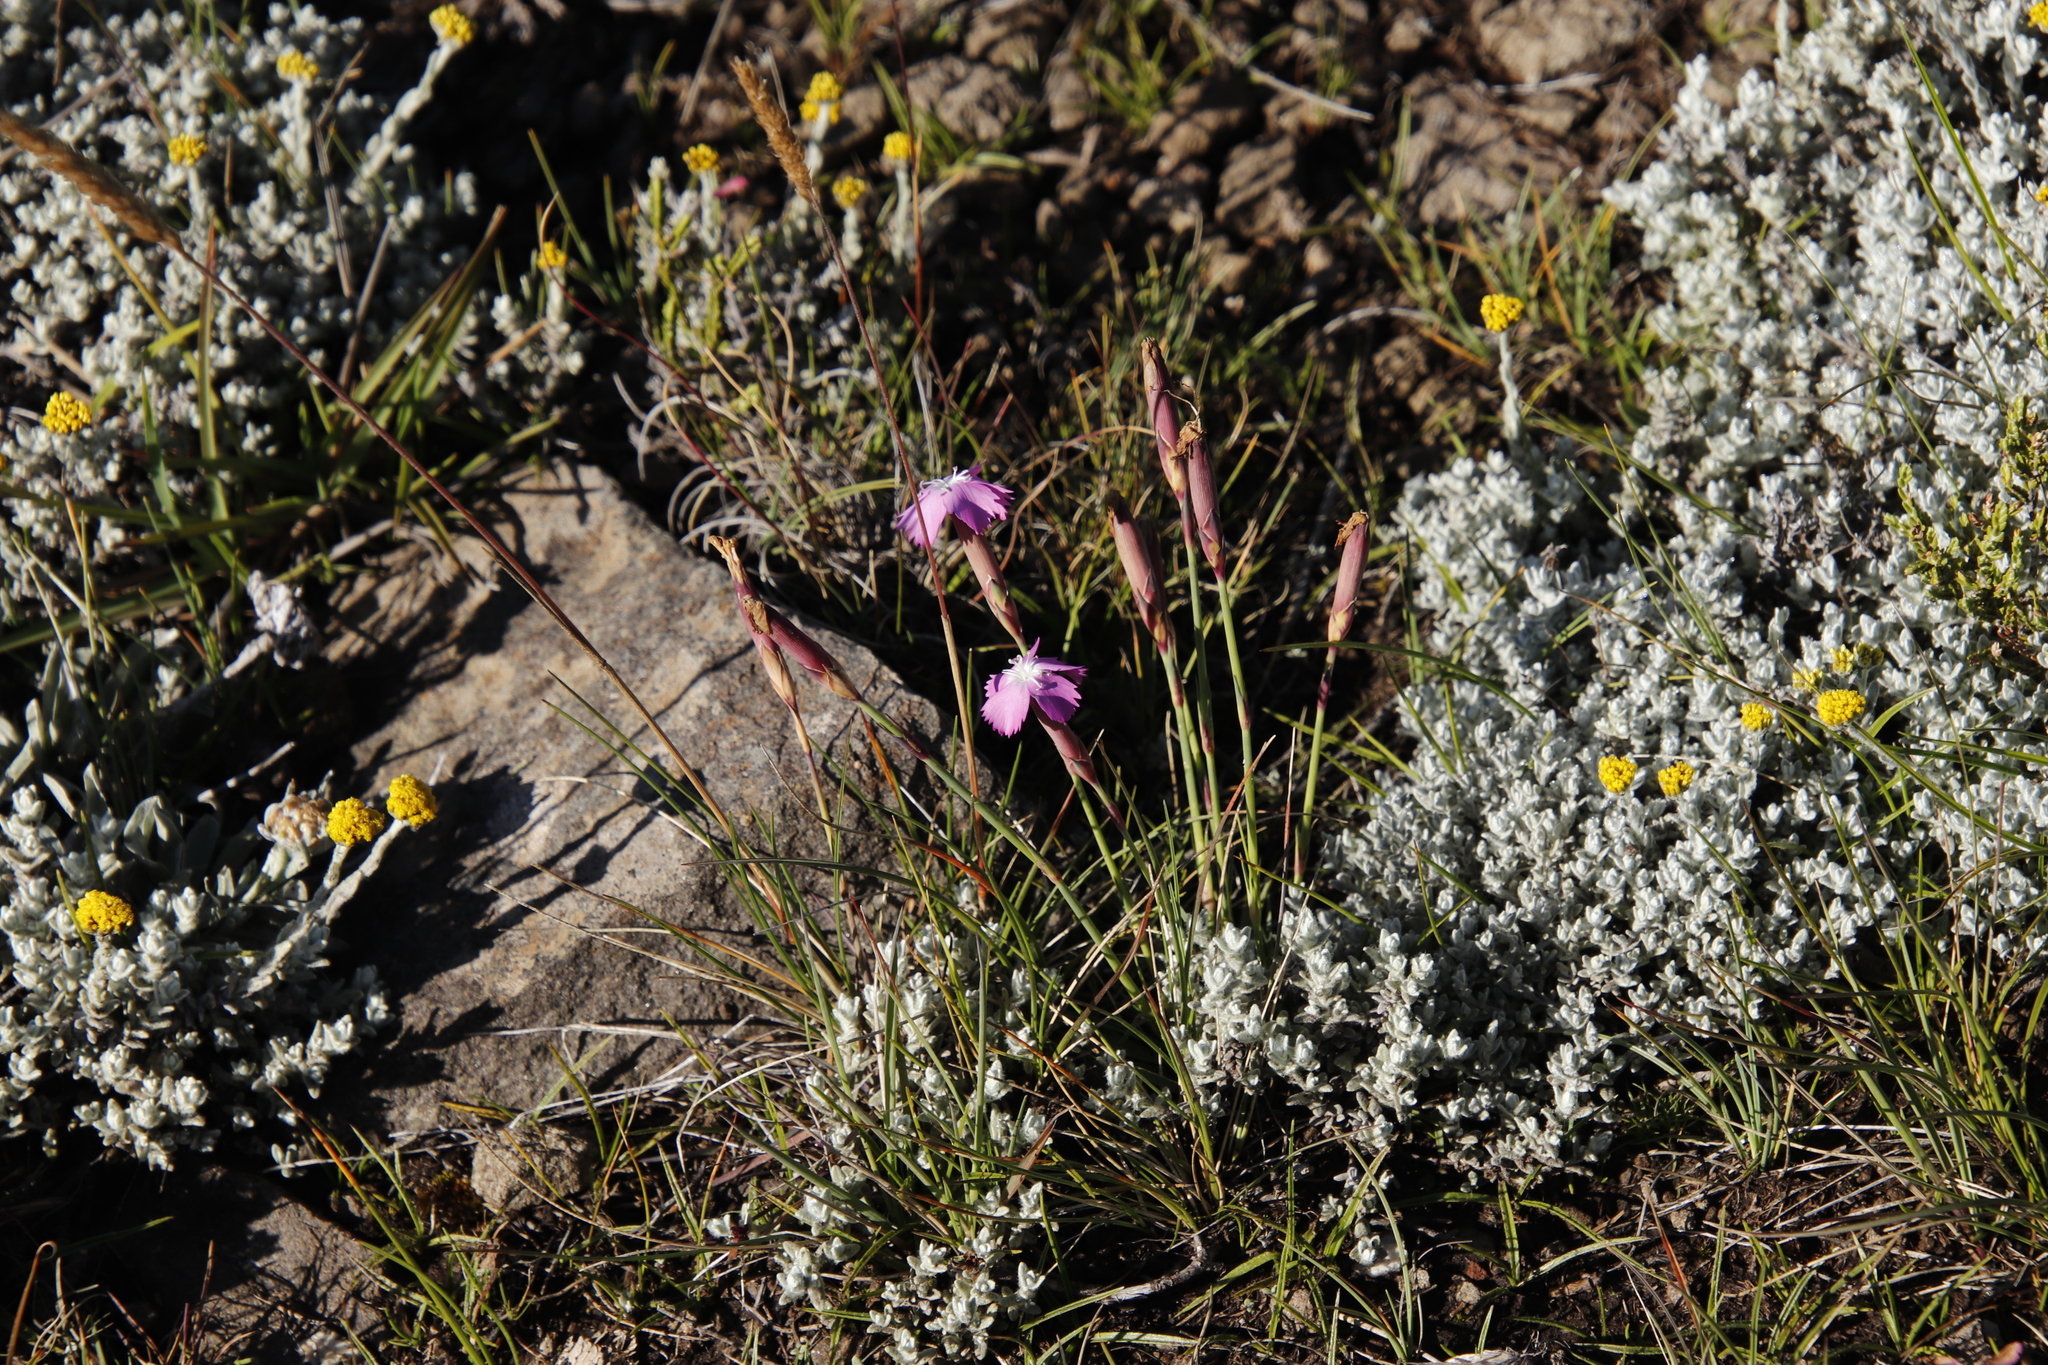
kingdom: Plantae
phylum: Tracheophyta
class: Magnoliopsida
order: Caryophyllales
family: Caryophyllaceae
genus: Dianthus
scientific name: Dianthus basuticus
